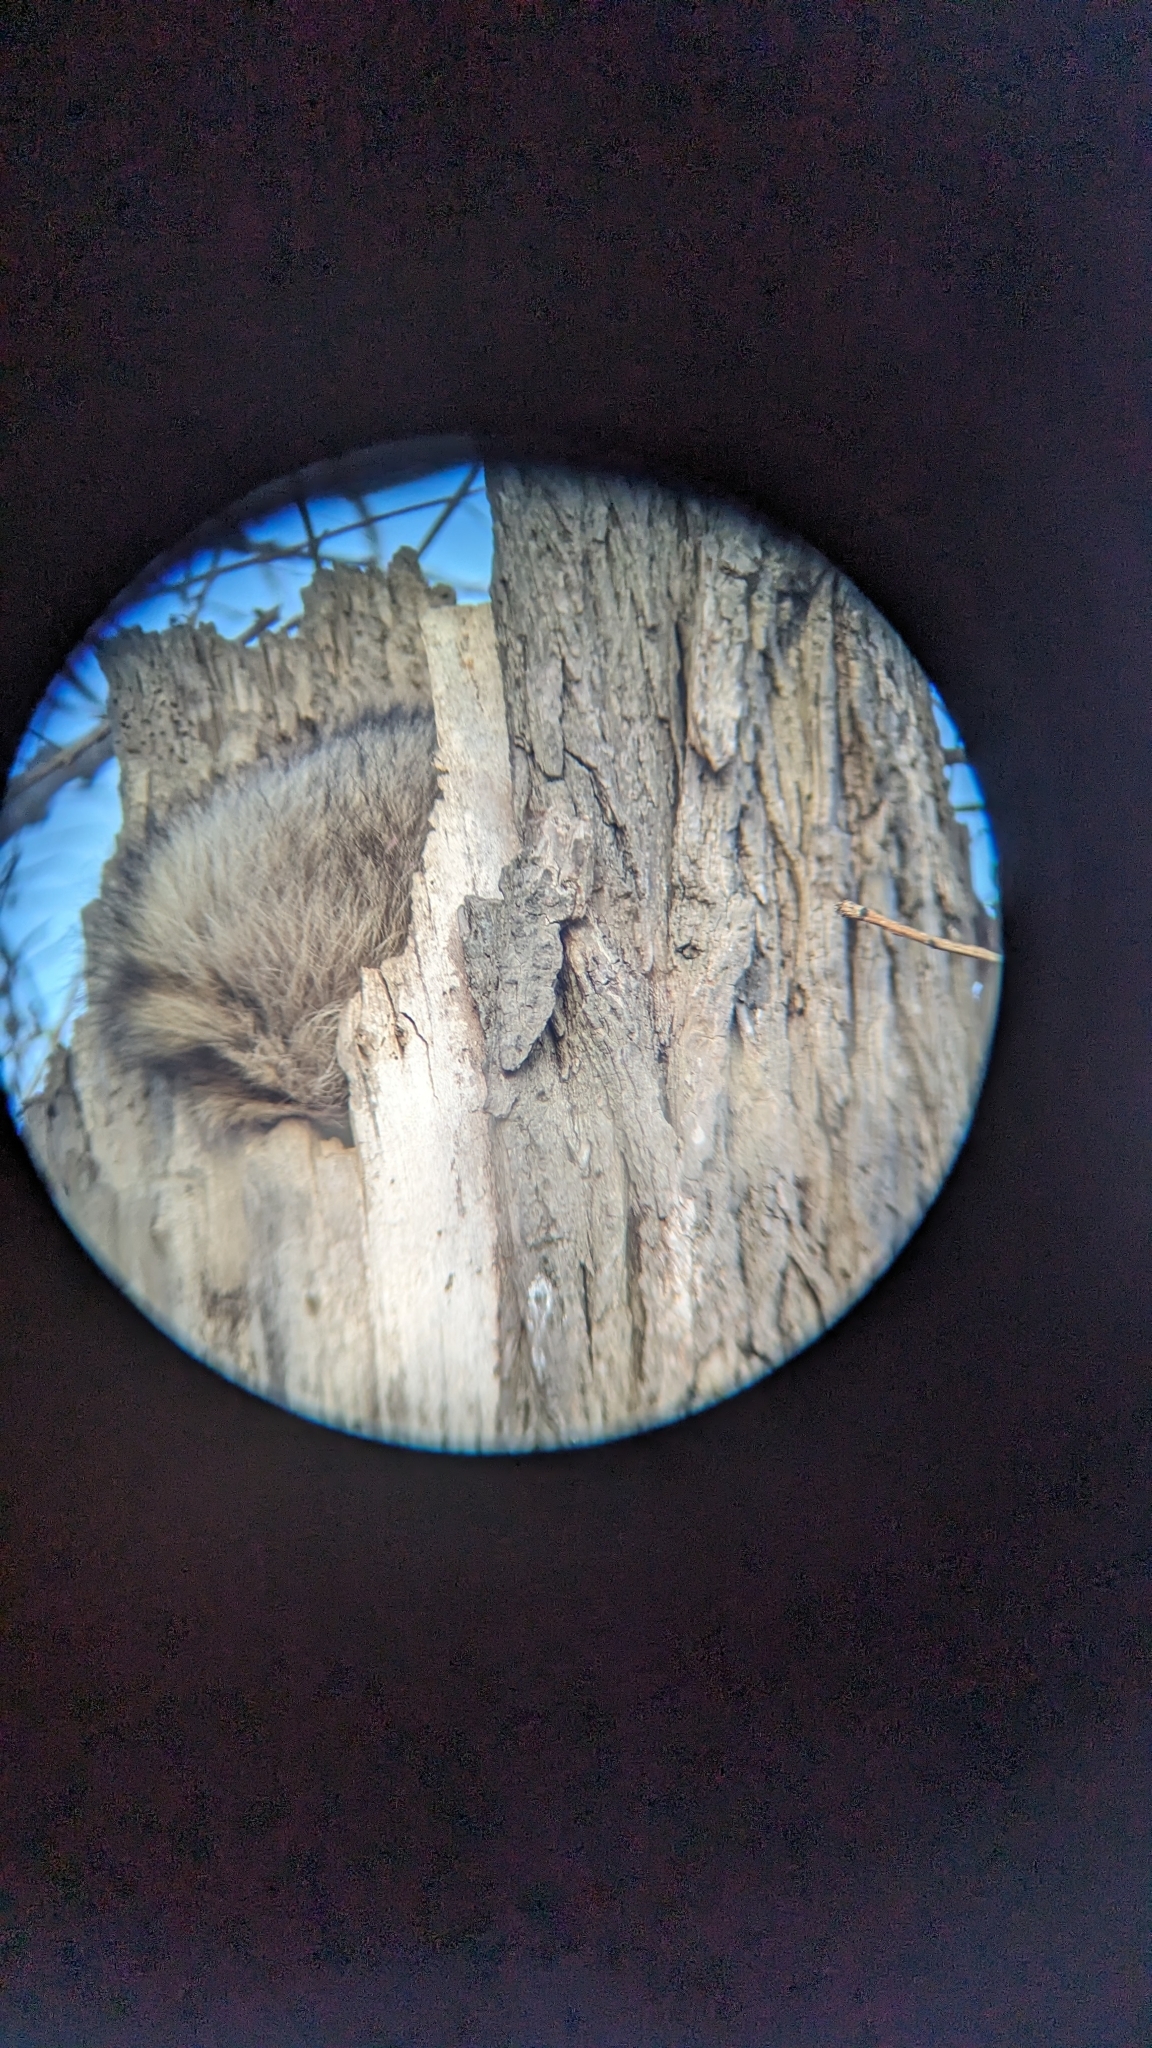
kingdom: Animalia
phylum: Chordata
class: Mammalia
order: Carnivora
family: Procyonidae
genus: Procyon
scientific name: Procyon lotor
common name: Raccoon
